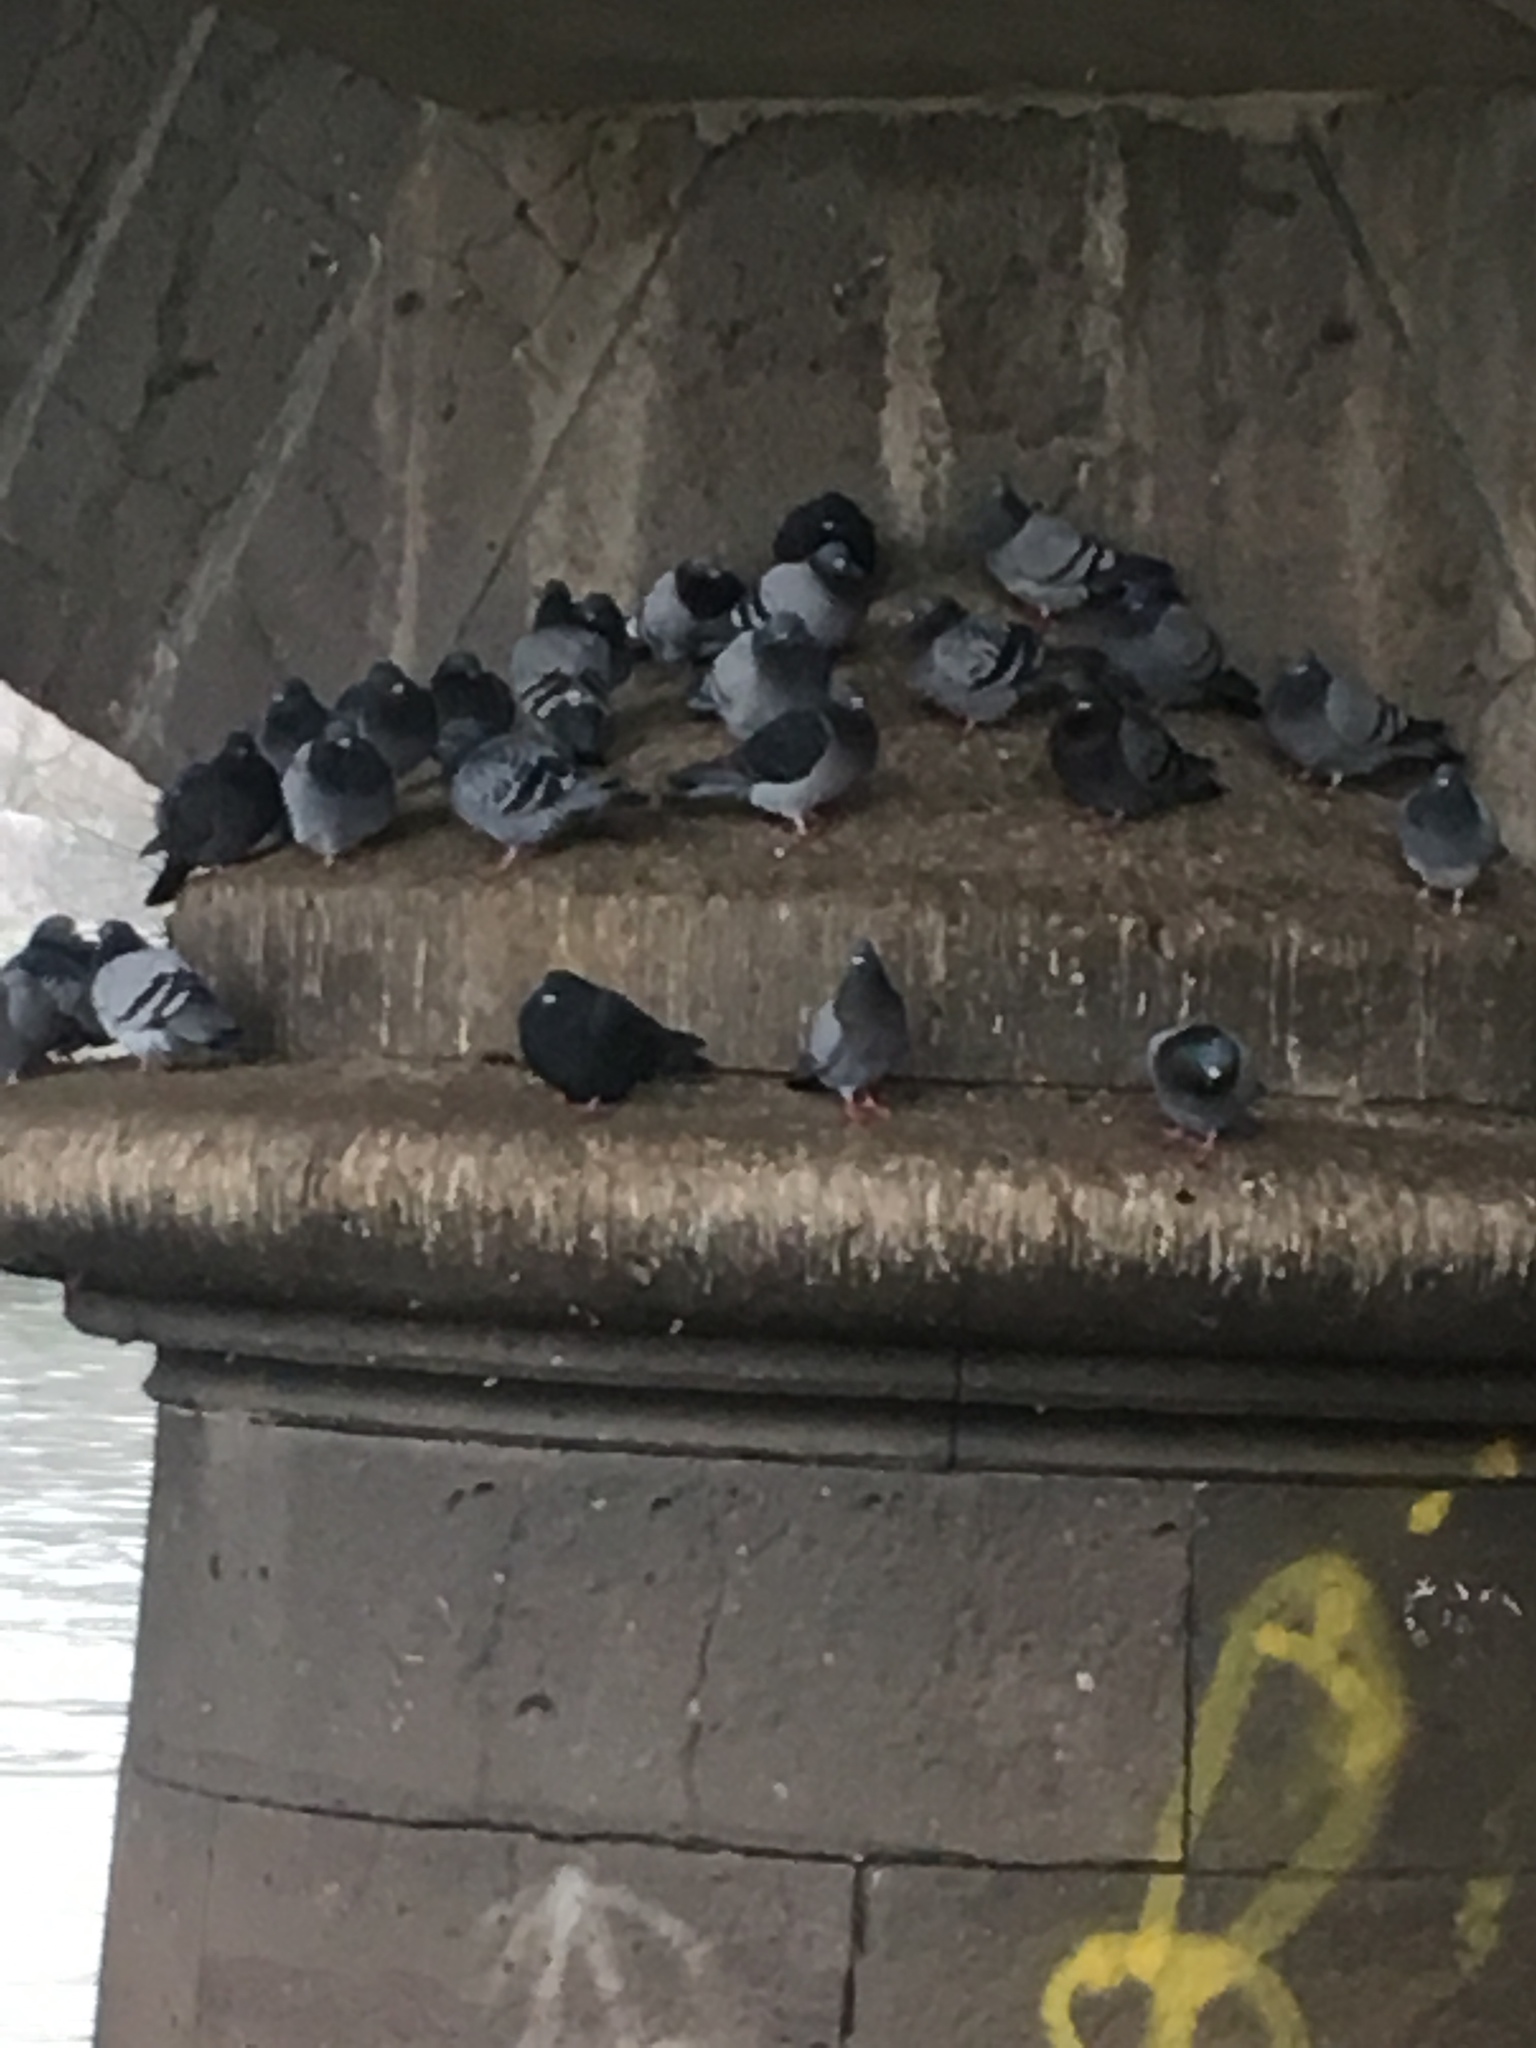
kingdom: Animalia
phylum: Chordata
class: Aves
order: Columbiformes
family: Columbidae
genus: Columba
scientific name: Columba livia
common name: Rock pigeon
